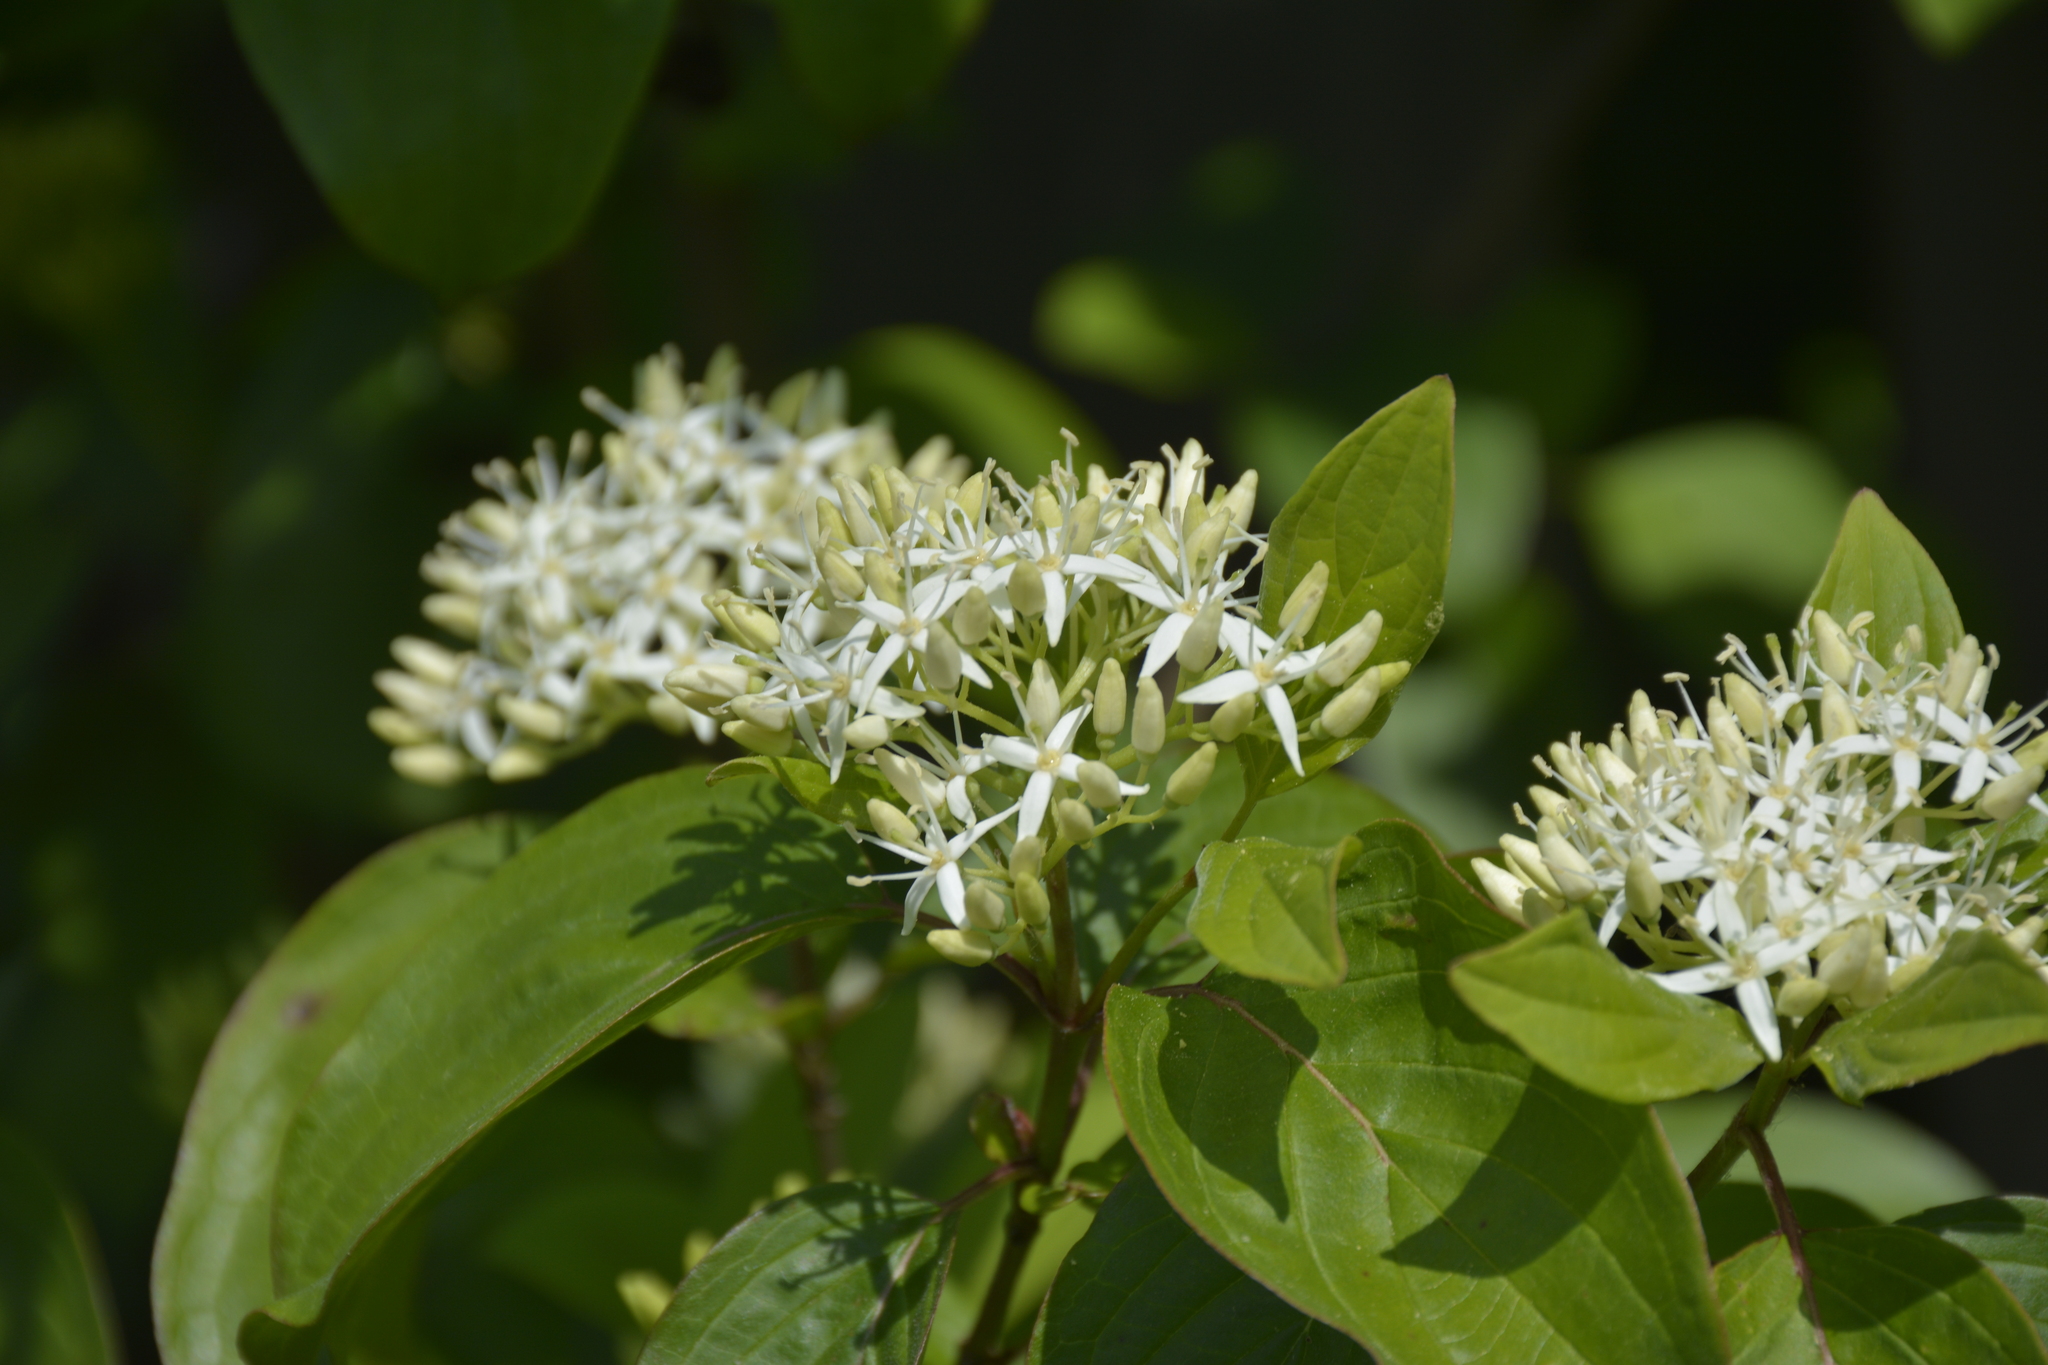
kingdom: Plantae
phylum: Tracheophyta
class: Magnoliopsida
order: Cornales
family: Cornaceae
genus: Cornus
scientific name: Cornus sanguinea
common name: Dogwood
